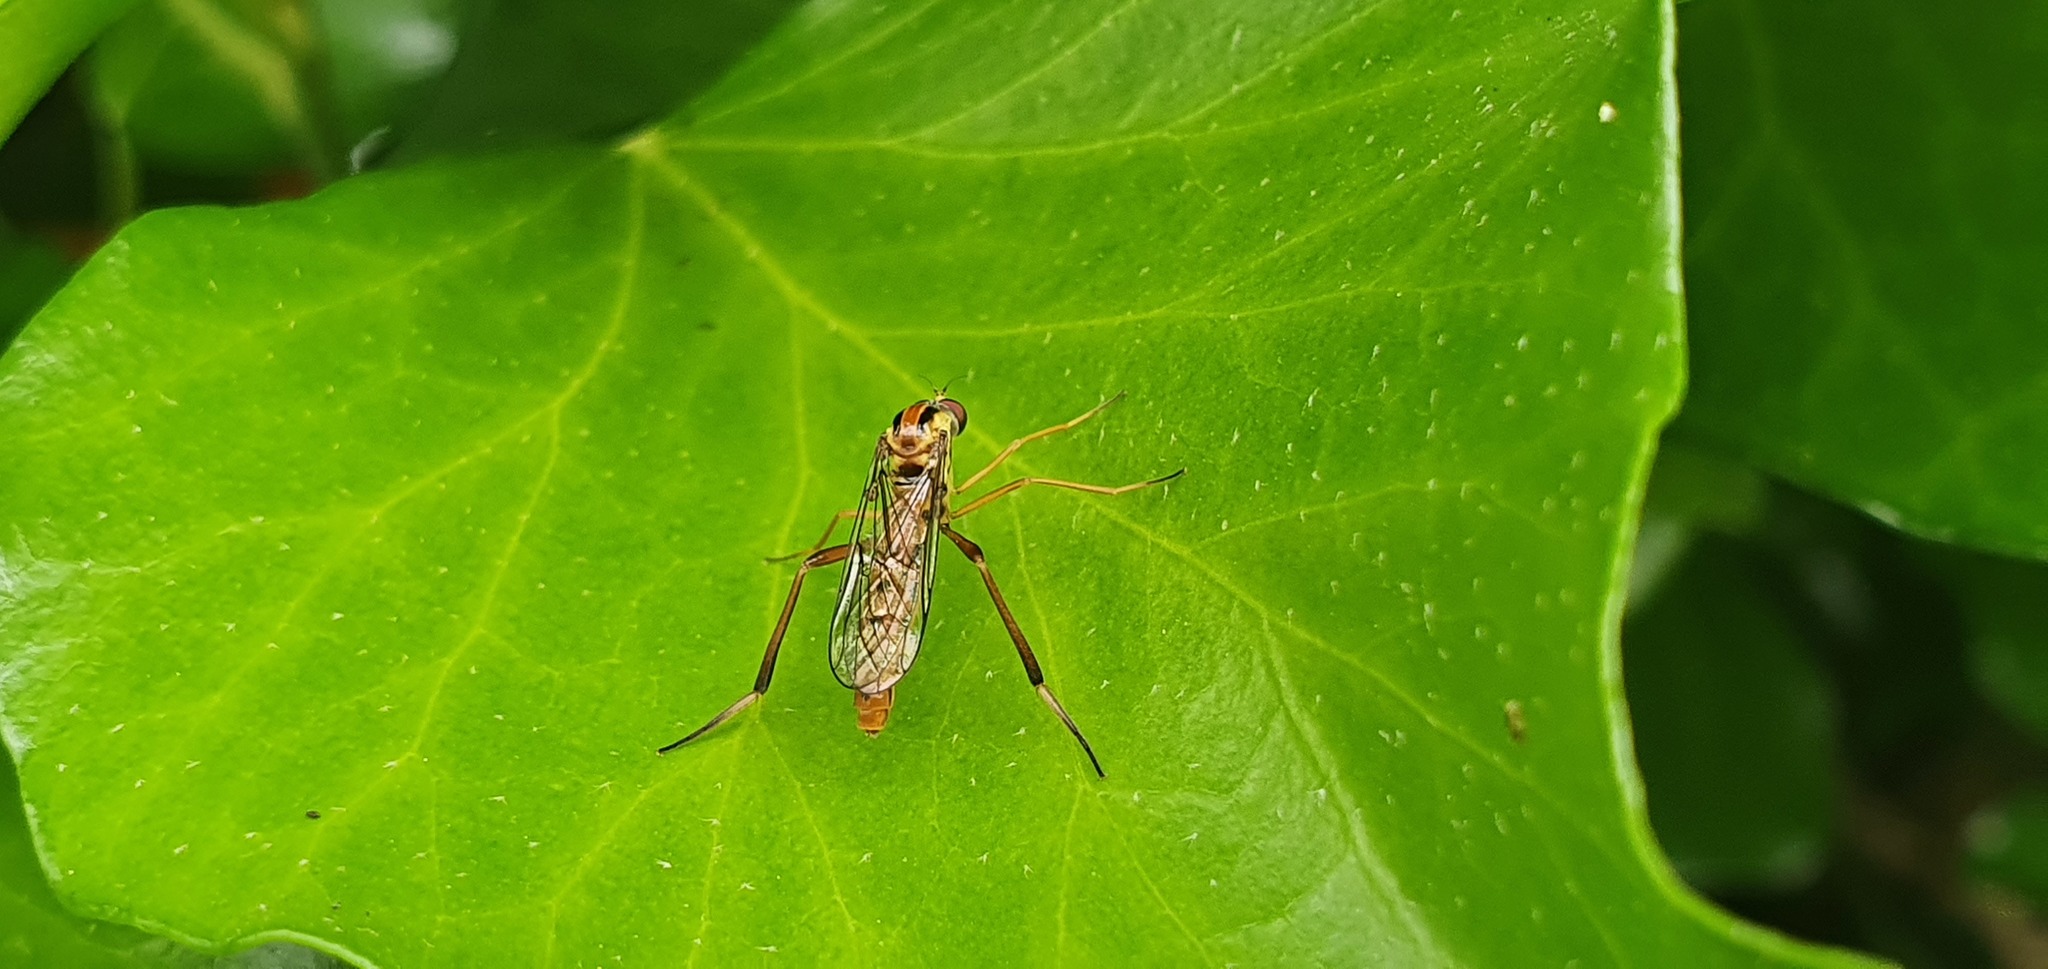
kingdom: Animalia
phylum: Arthropoda
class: Insecta
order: Diptera
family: Vermileonidae
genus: Vermileo
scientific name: Vermileo vermileo
